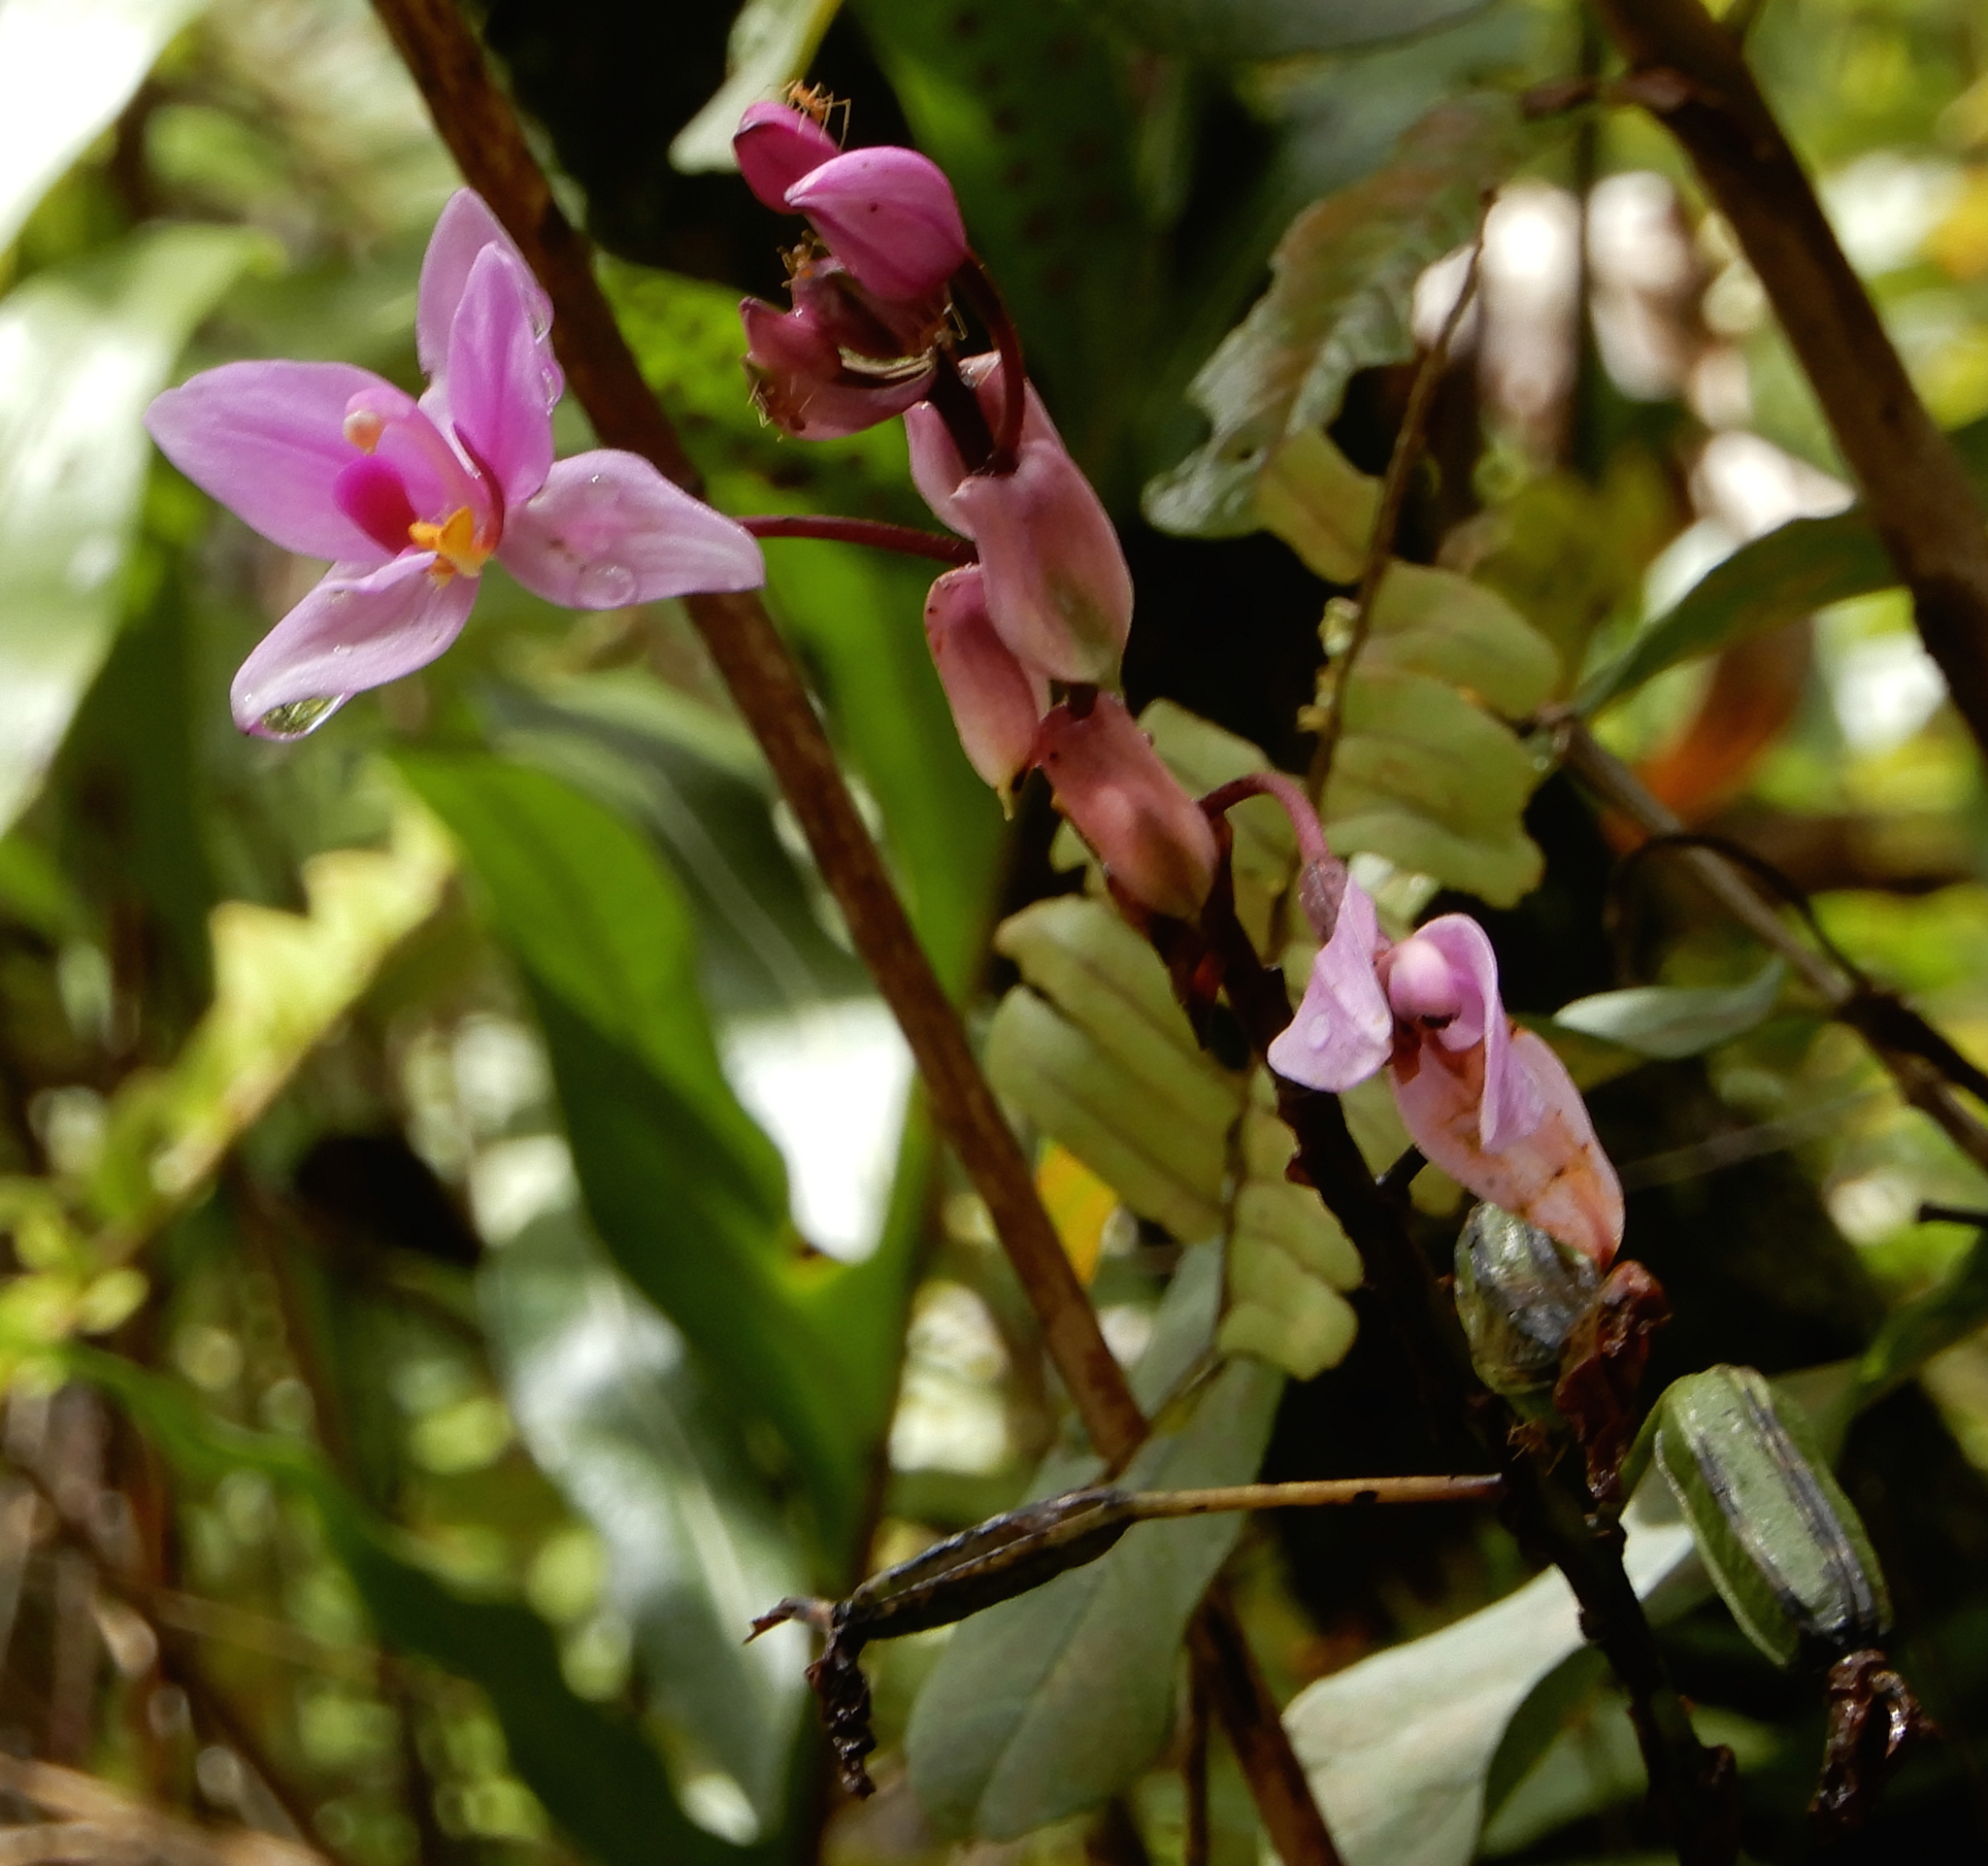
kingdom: Plantae
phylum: Tracheophyta
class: Liliopsida
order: Asparagales
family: Orchidaceae
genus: Spathoglottis
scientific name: Spathoglottis plicata
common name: Philippine ground orchid
